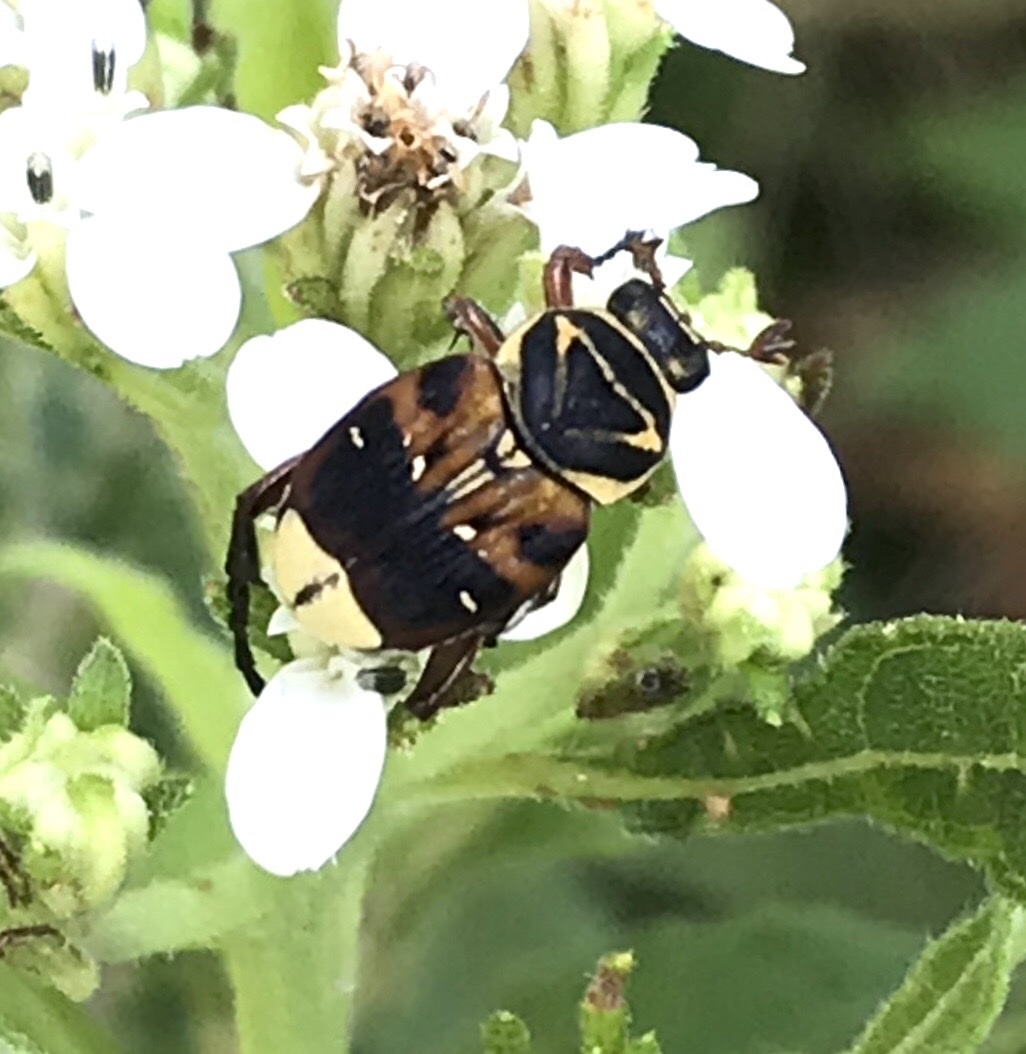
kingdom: Animalia
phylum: Arthropoda
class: Insecta
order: Coleoptera
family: Scarabaeidae
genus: Trigonopeltastes
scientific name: Trigonopeltastes delta
